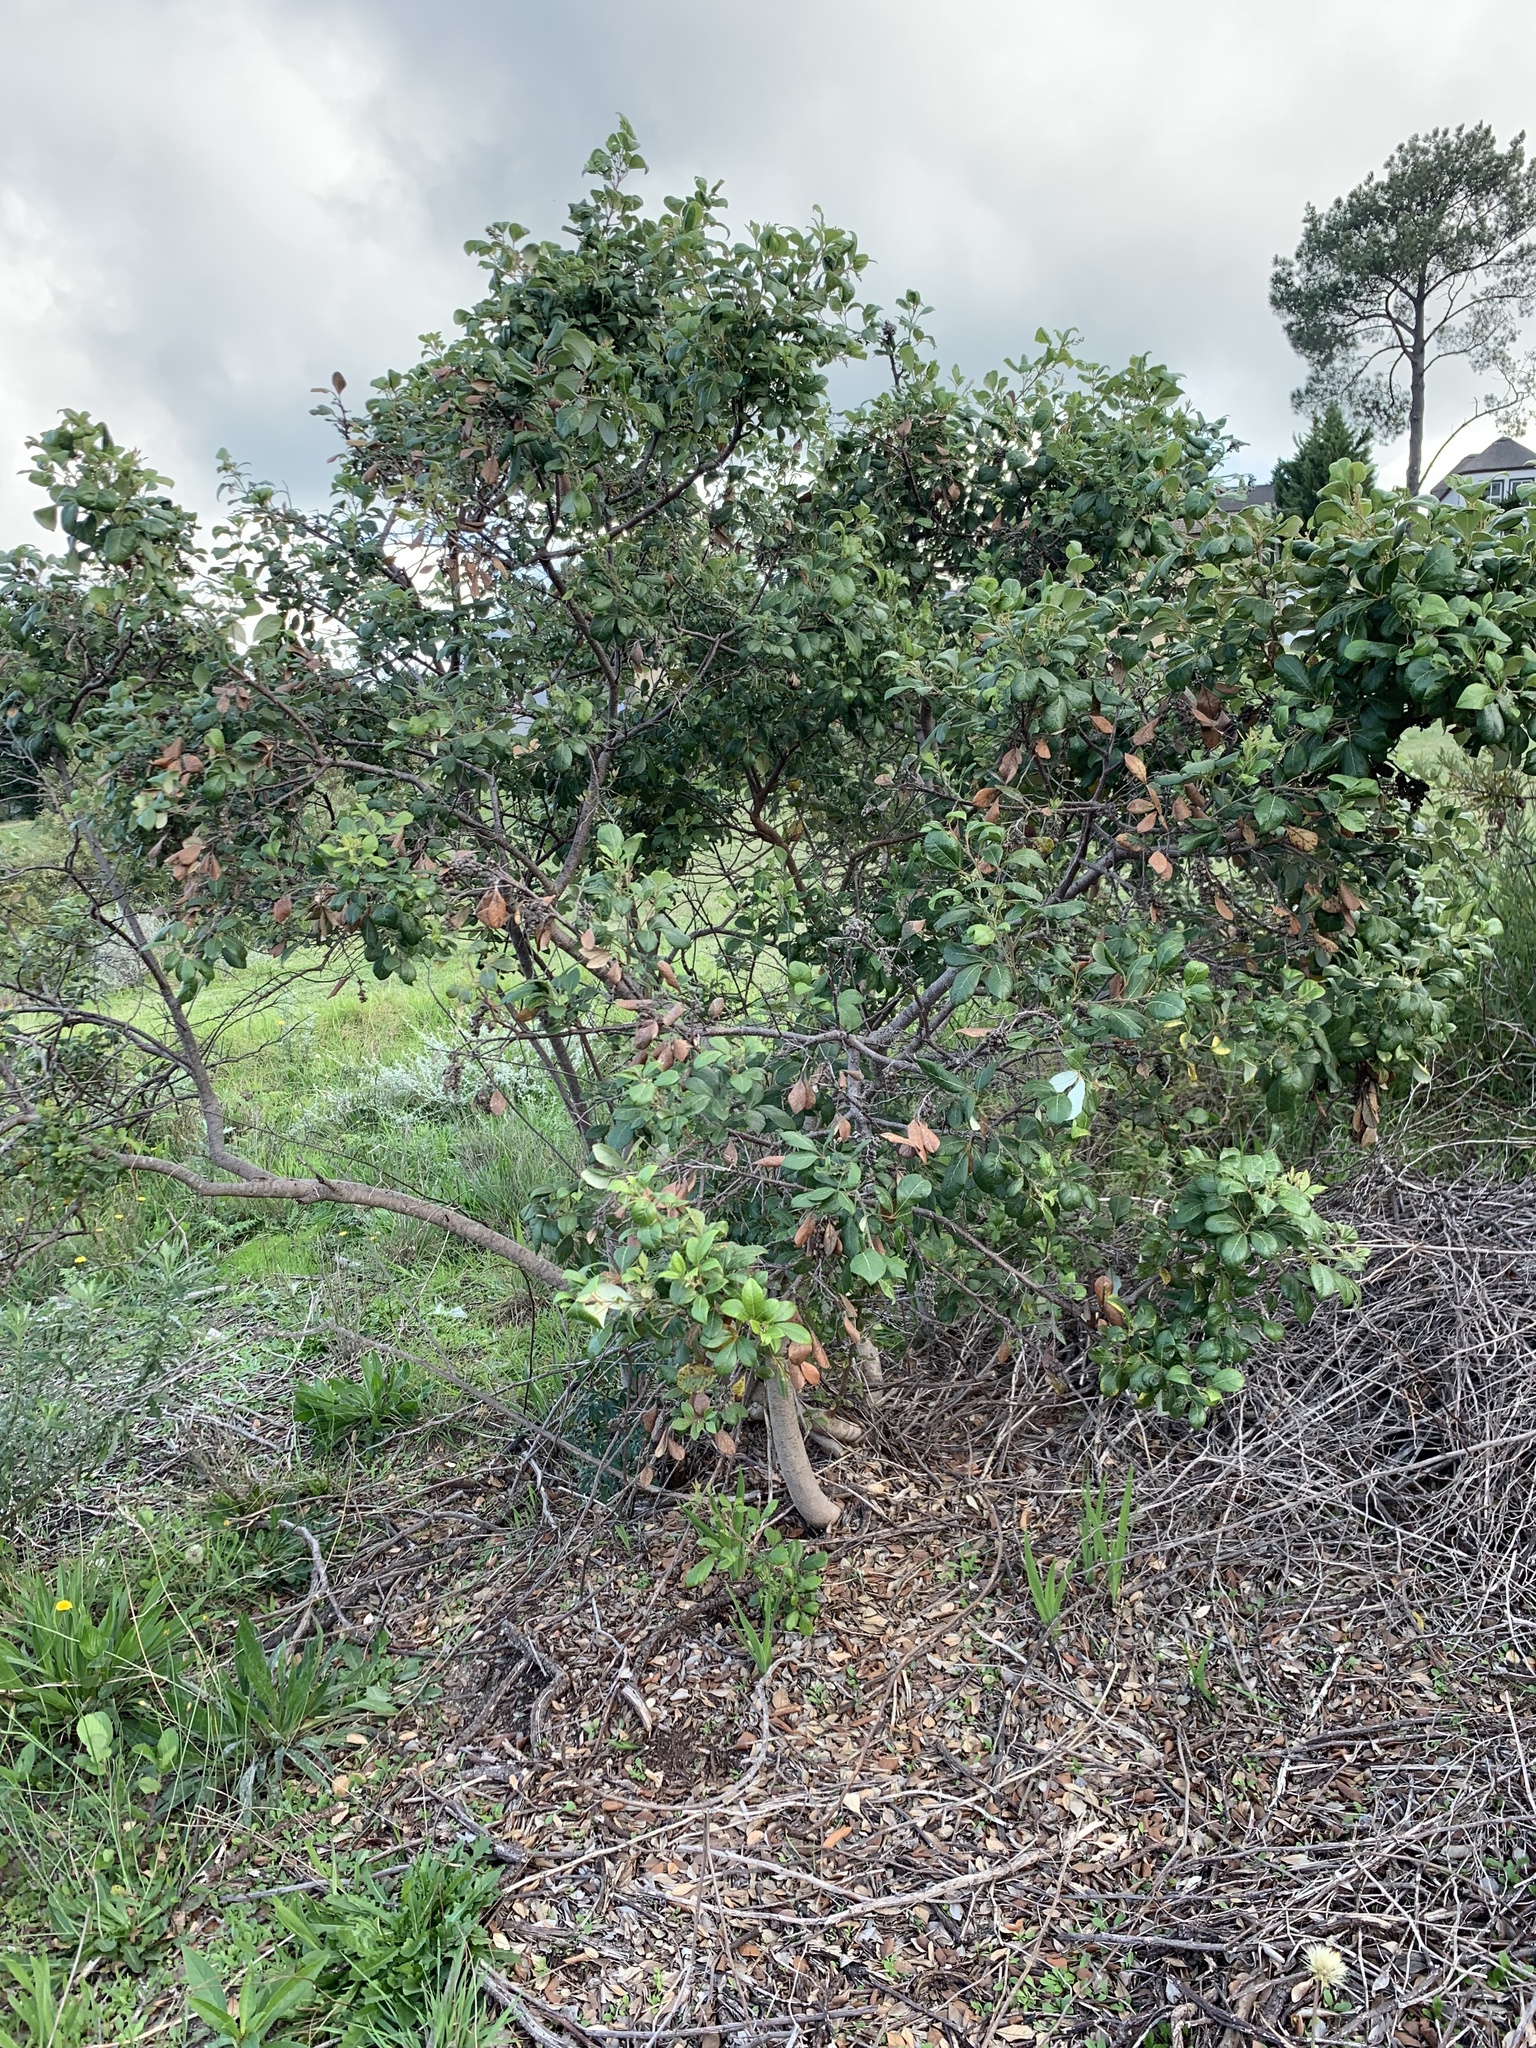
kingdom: Plantae
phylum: Tracheophyta
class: Magnoliopsida
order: Sapindales
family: Anacardiaceae
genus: Searsia
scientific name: Searsia tomentosa
